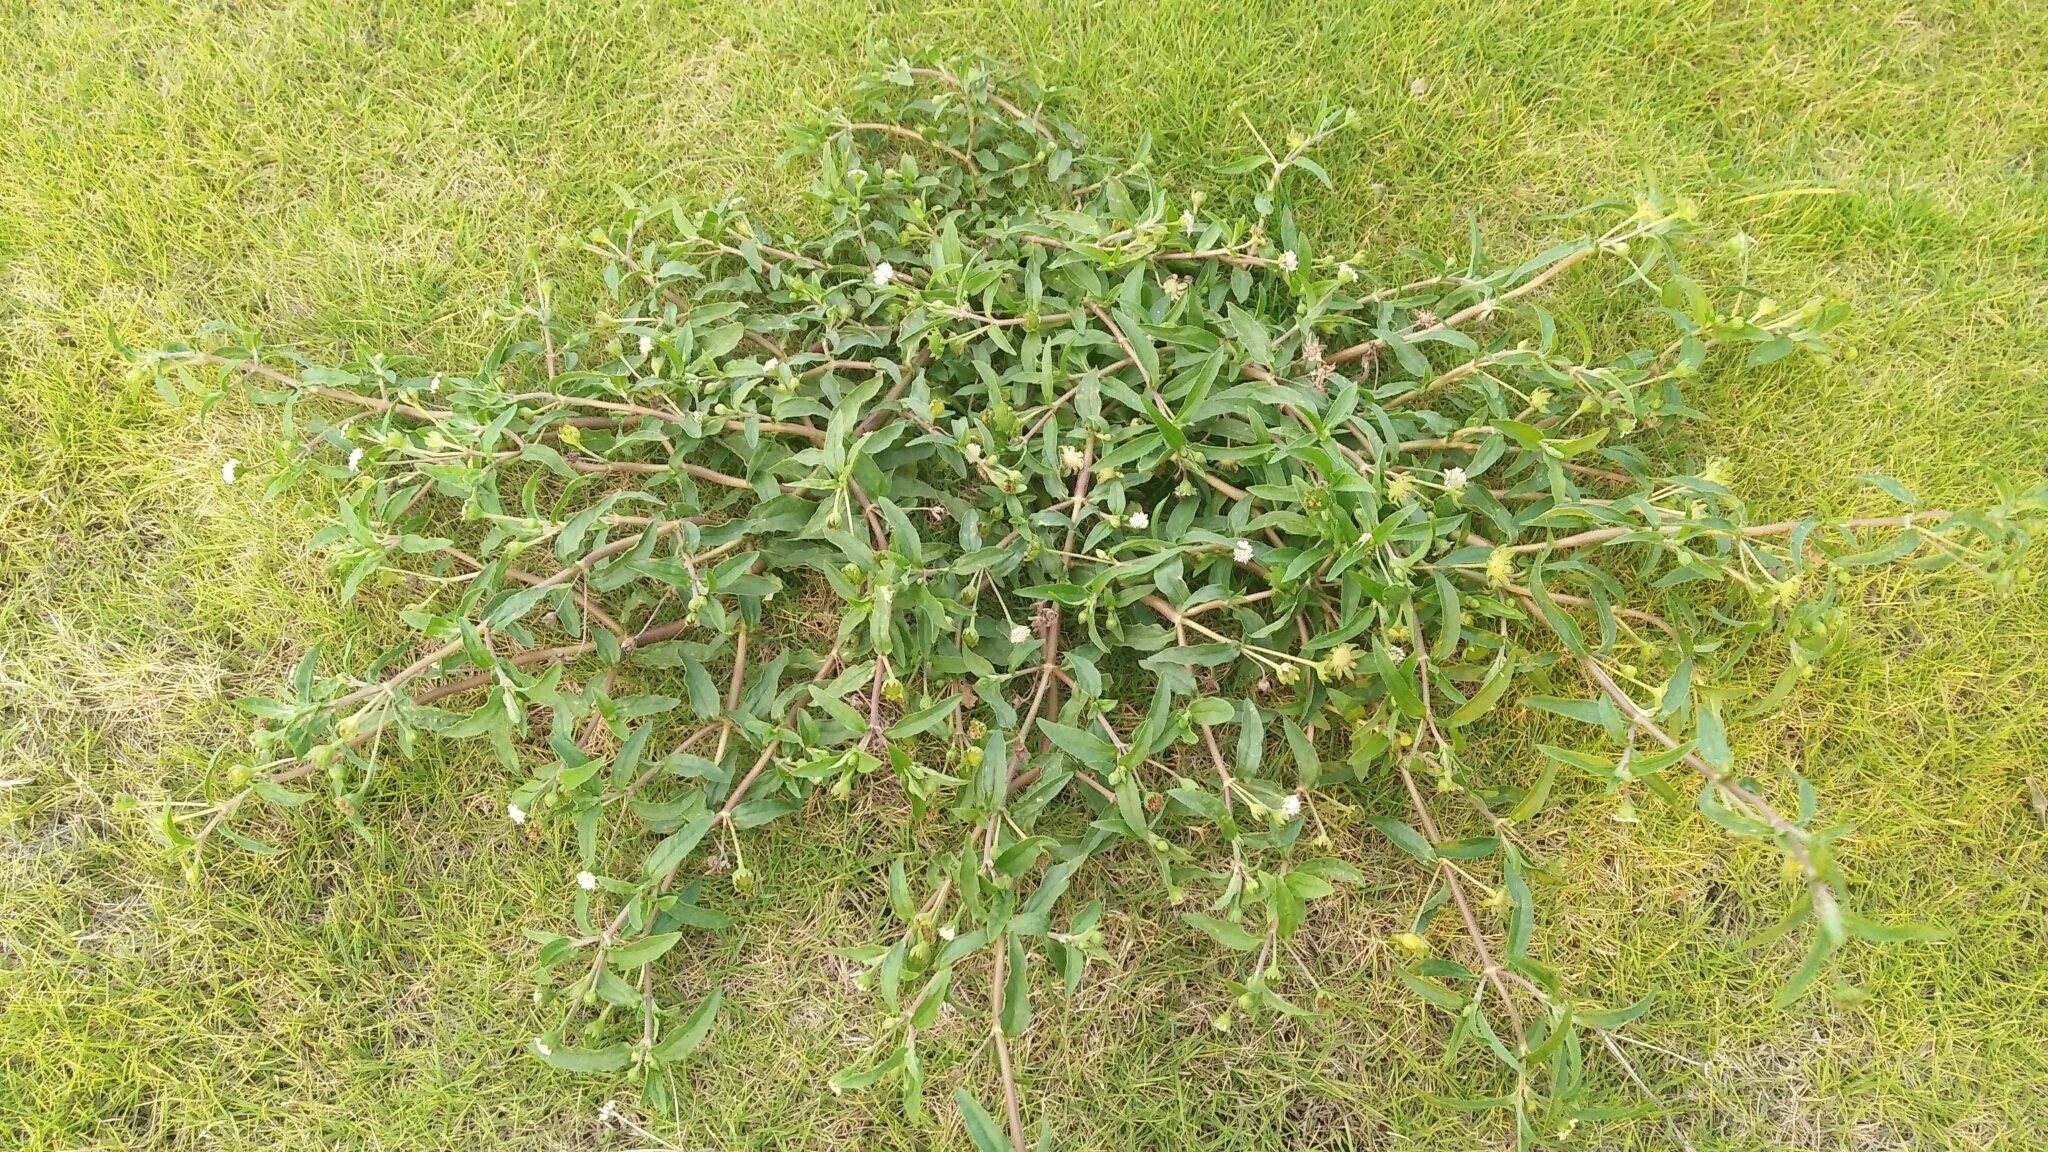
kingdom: Plantae
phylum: Tracheophyta
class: Magnoliopsida
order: Asterales
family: Asteraceae
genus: Eclipta
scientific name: Eclipta prostrata
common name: False daisy
